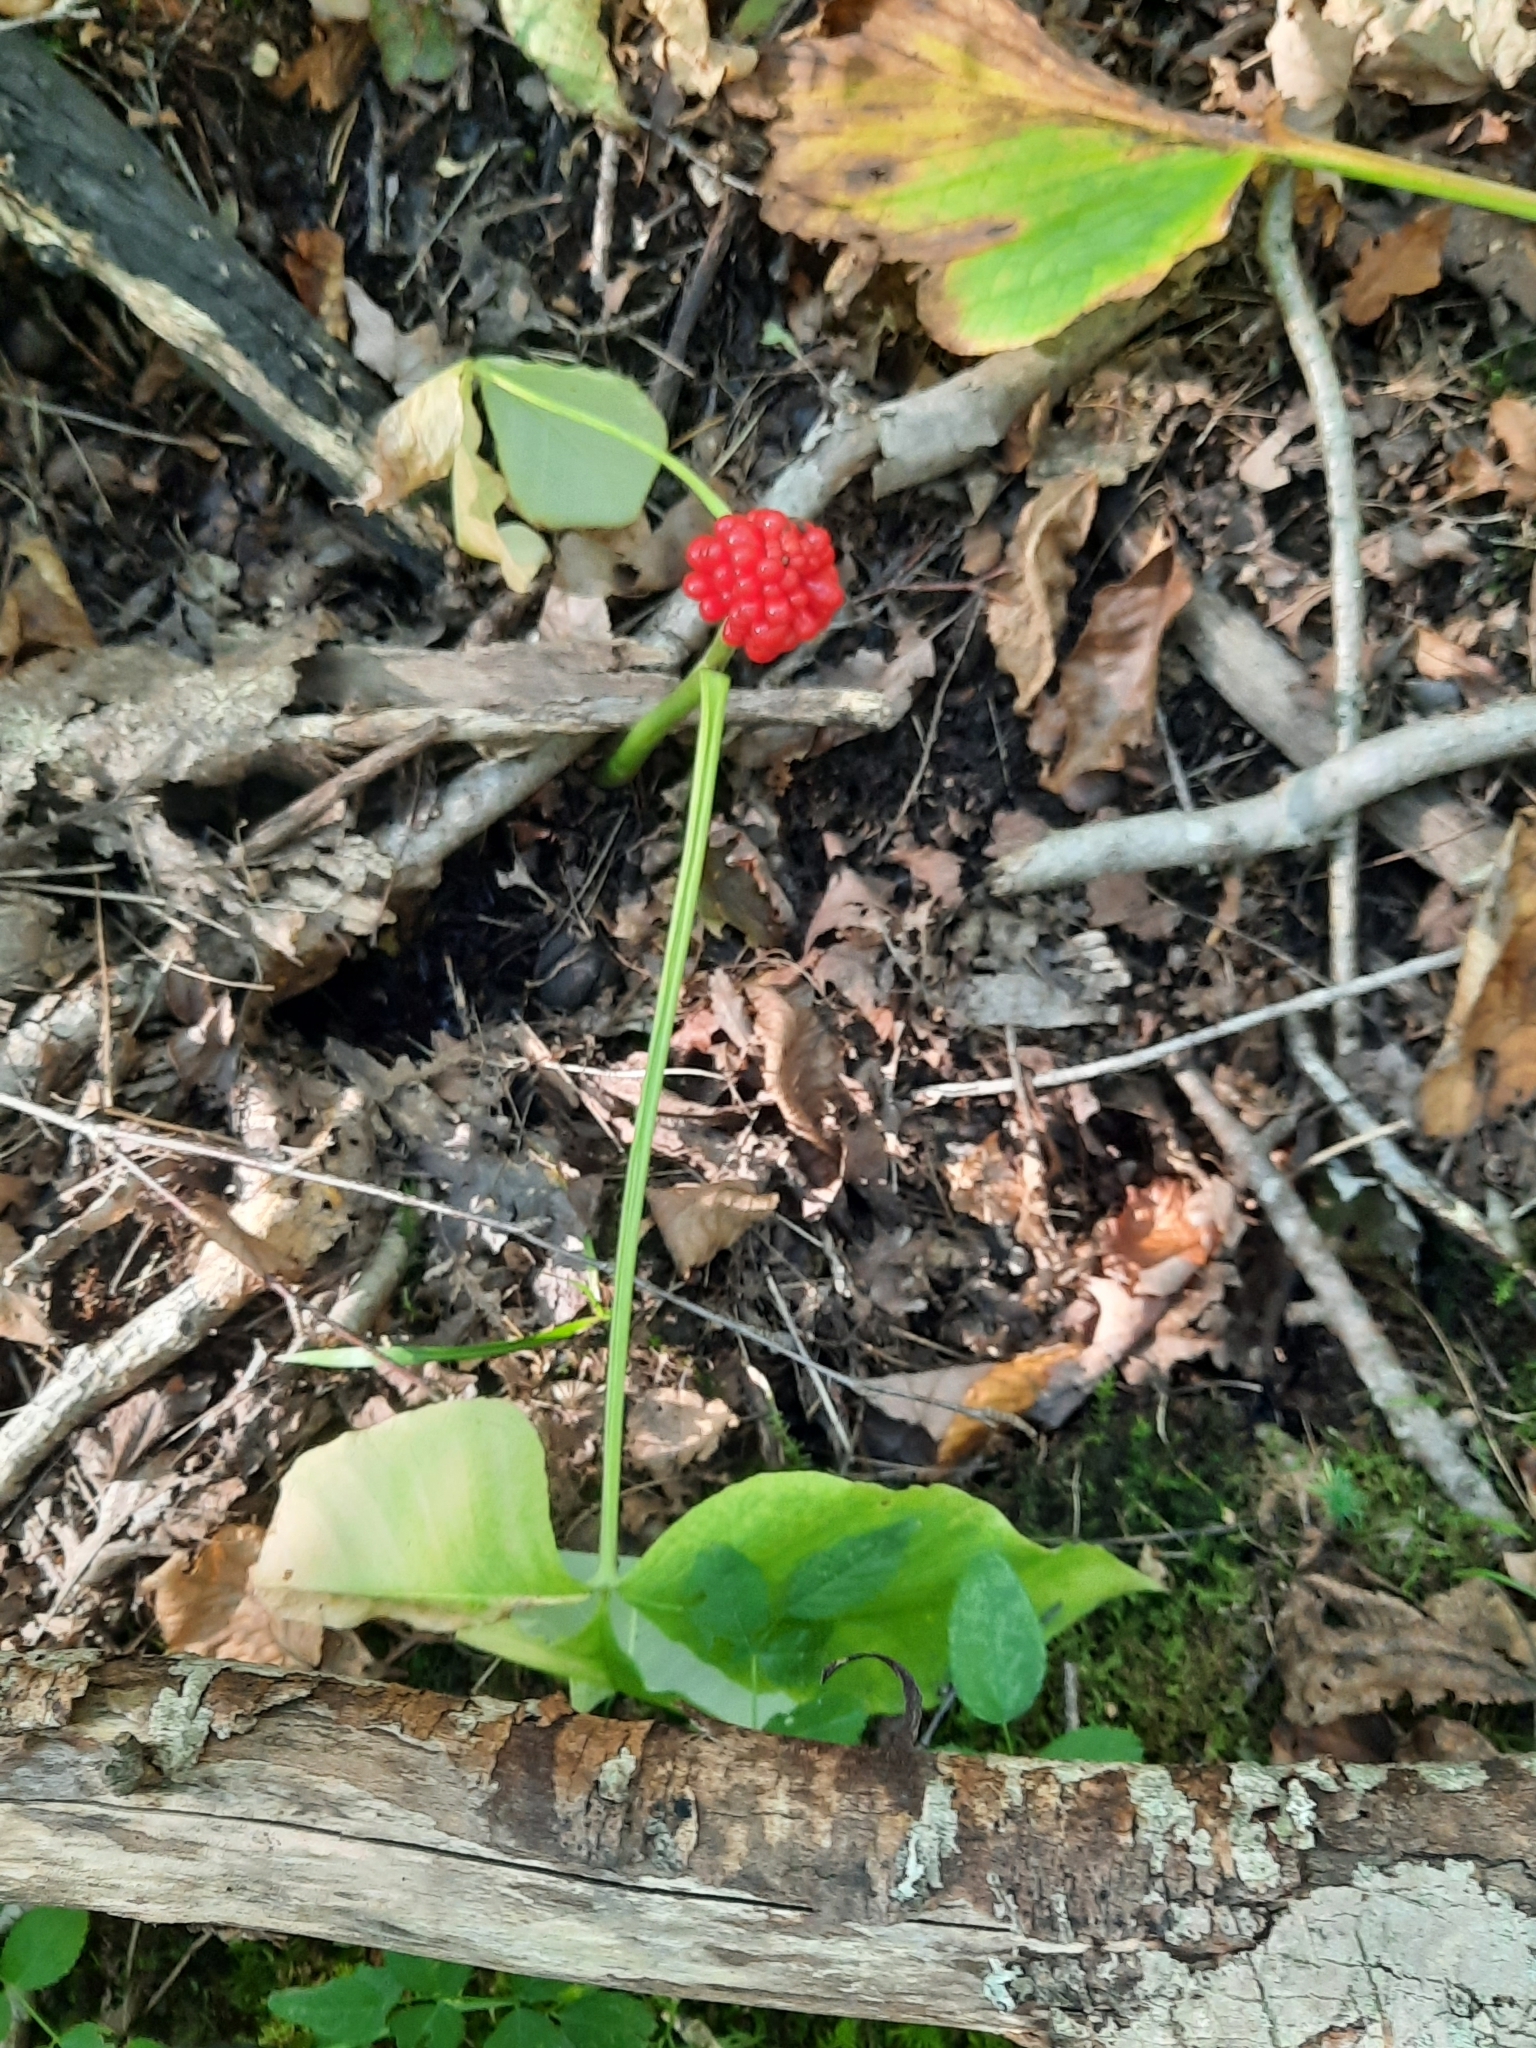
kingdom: Plantae
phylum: Tracheophyta
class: Liliopsida
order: Alismatales
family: Araceae
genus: Arisaema
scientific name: Arisaema triphyllum
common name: Jack-in-the-pulpit
